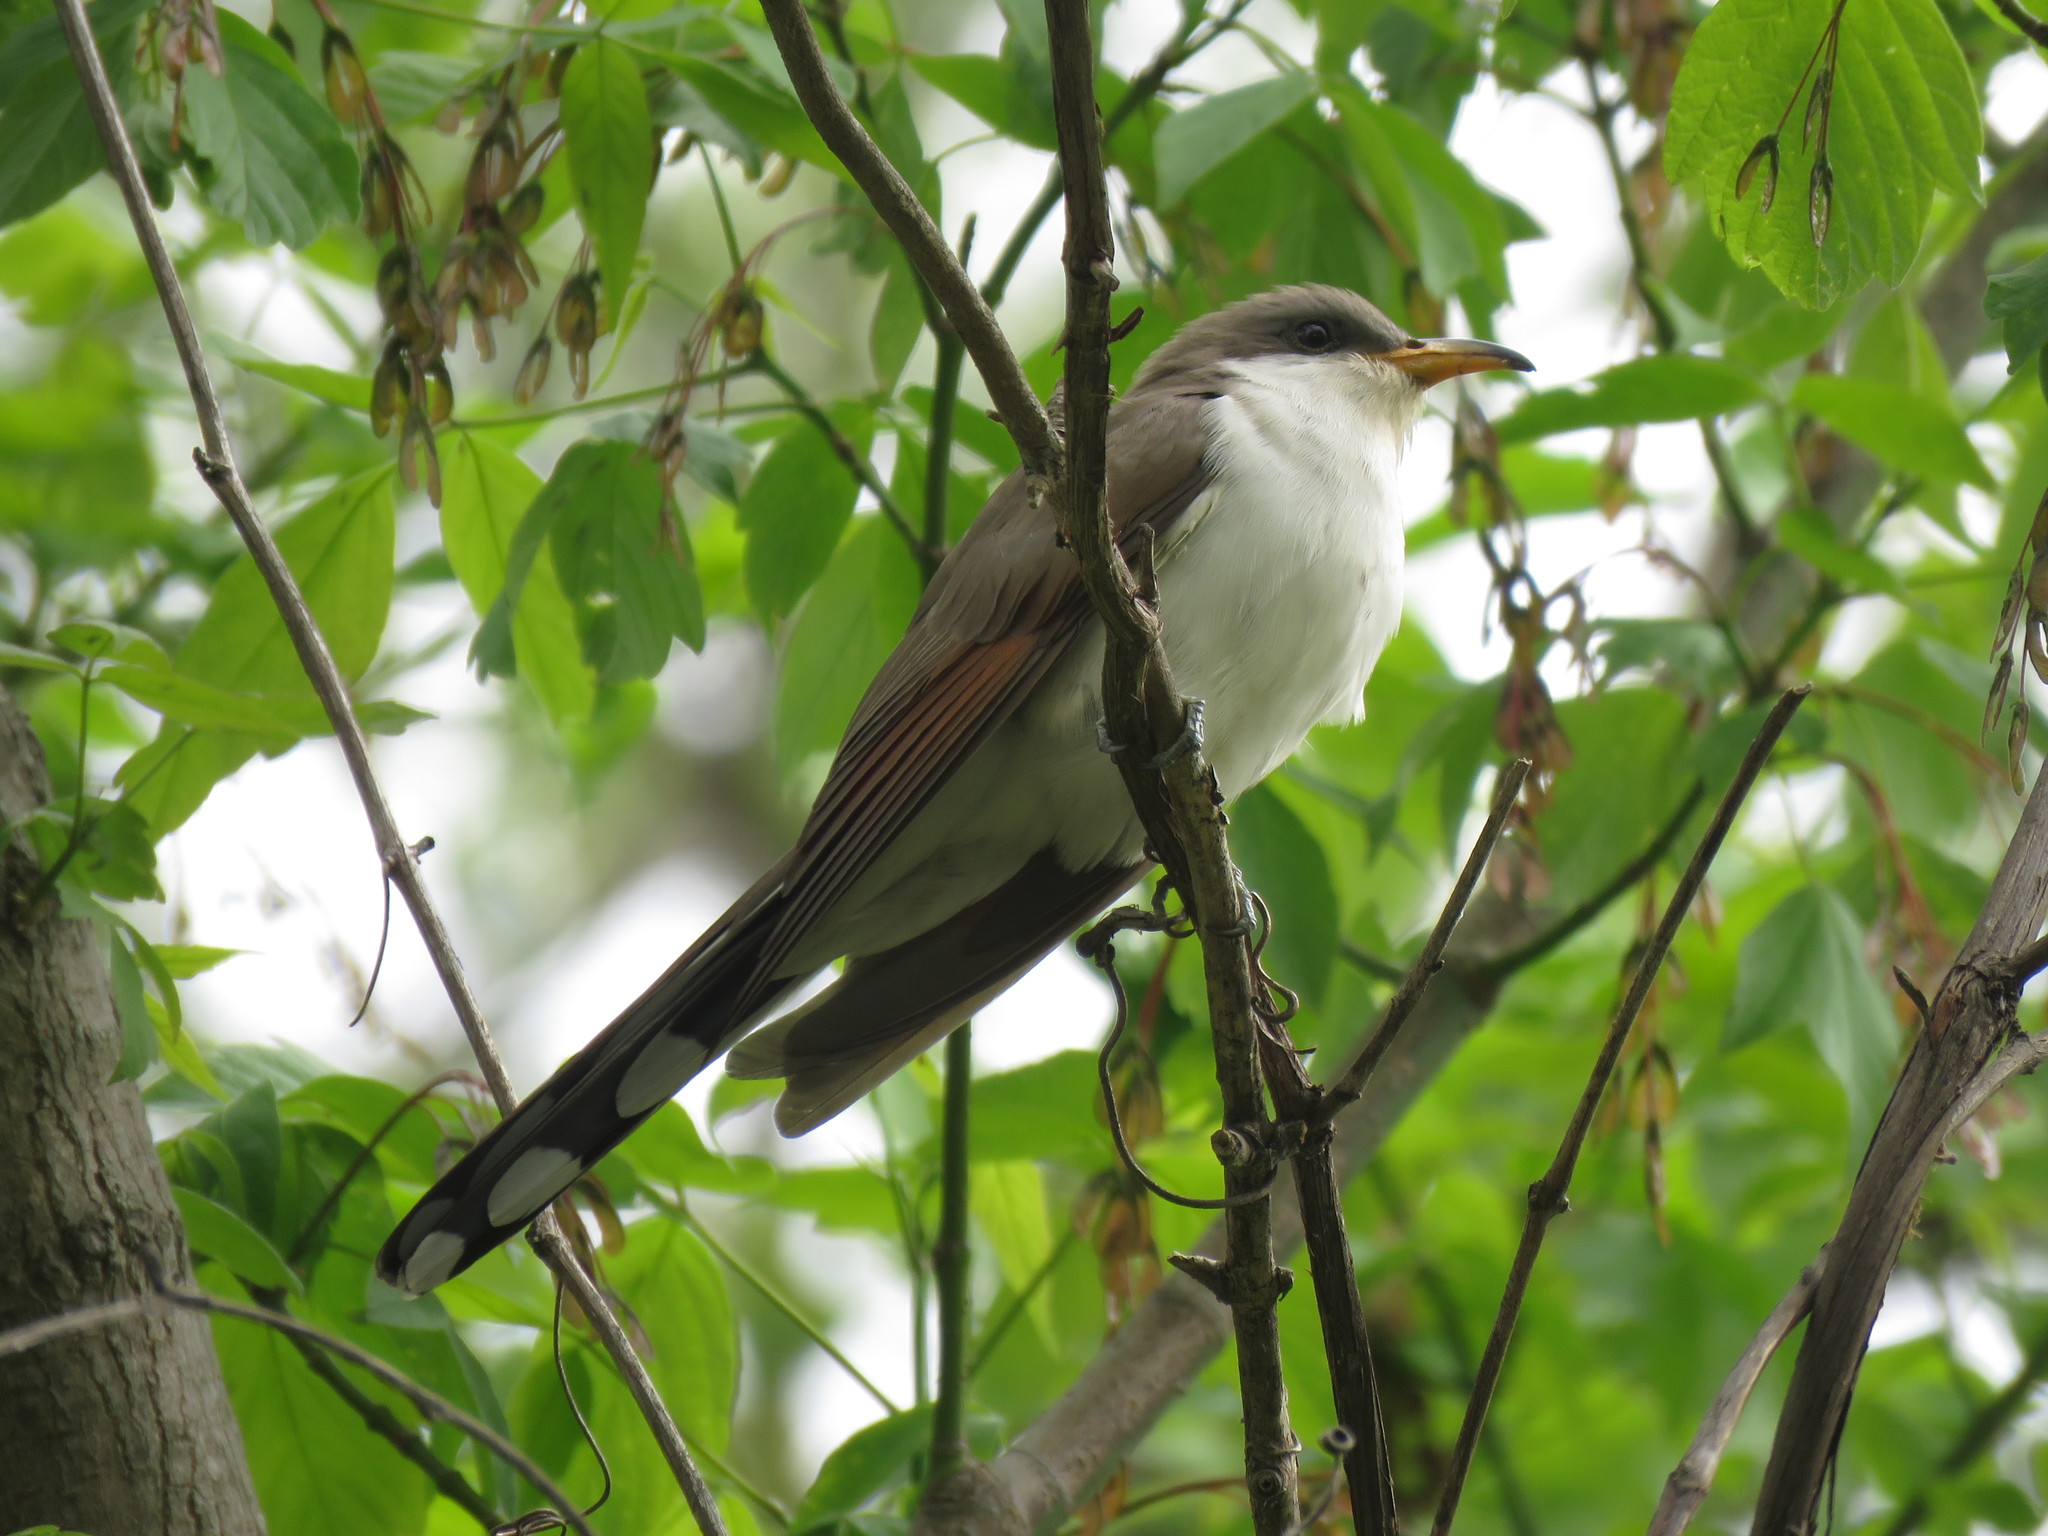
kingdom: Animalia
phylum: Chordata
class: Aves
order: Cuculiformes
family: Cuculidae
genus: Coccyzus
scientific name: Coccyzus americanus
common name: Yellow-billed cuckoo
